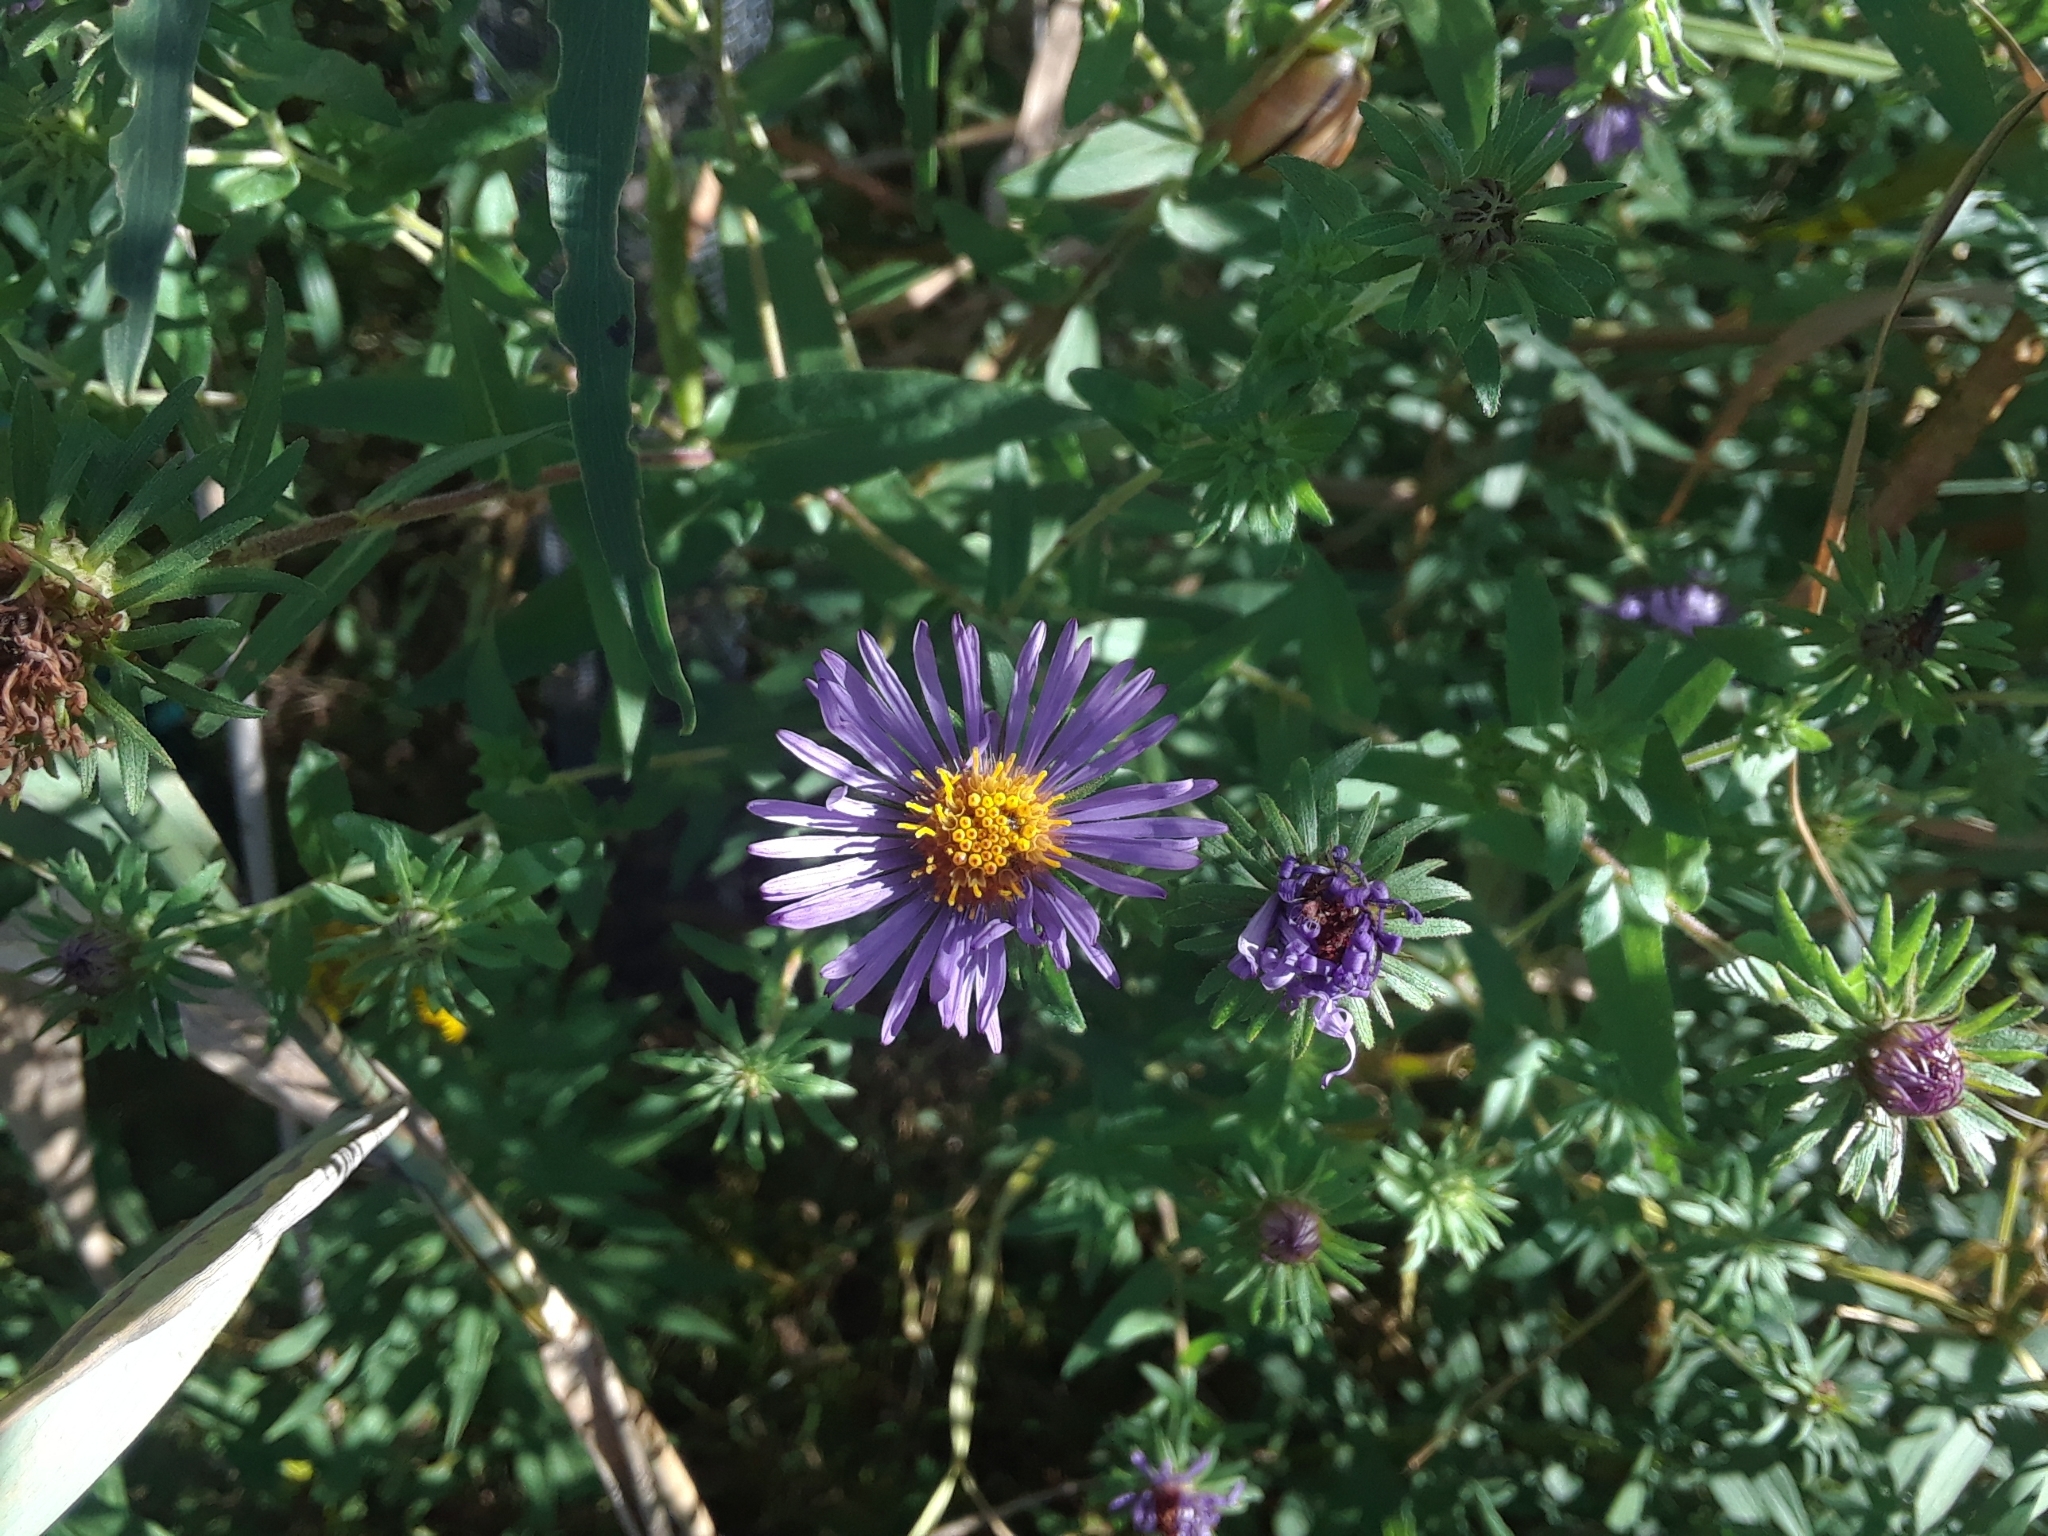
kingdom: Plantae
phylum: Tracheophyta
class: Magnoliopsida
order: Asterales
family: Asteraceae
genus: Symphyotrichum
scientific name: Symphyotrichum novae-angliae
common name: Michaelmas daisy
